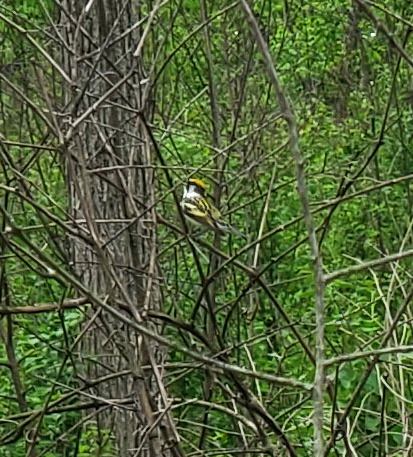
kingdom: Animalia
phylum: Chordata
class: Aves
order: Passeriformes
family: Parulidae
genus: Setophaga
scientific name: Setophaga pensylvanica
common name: Chestnut-sided warbler
